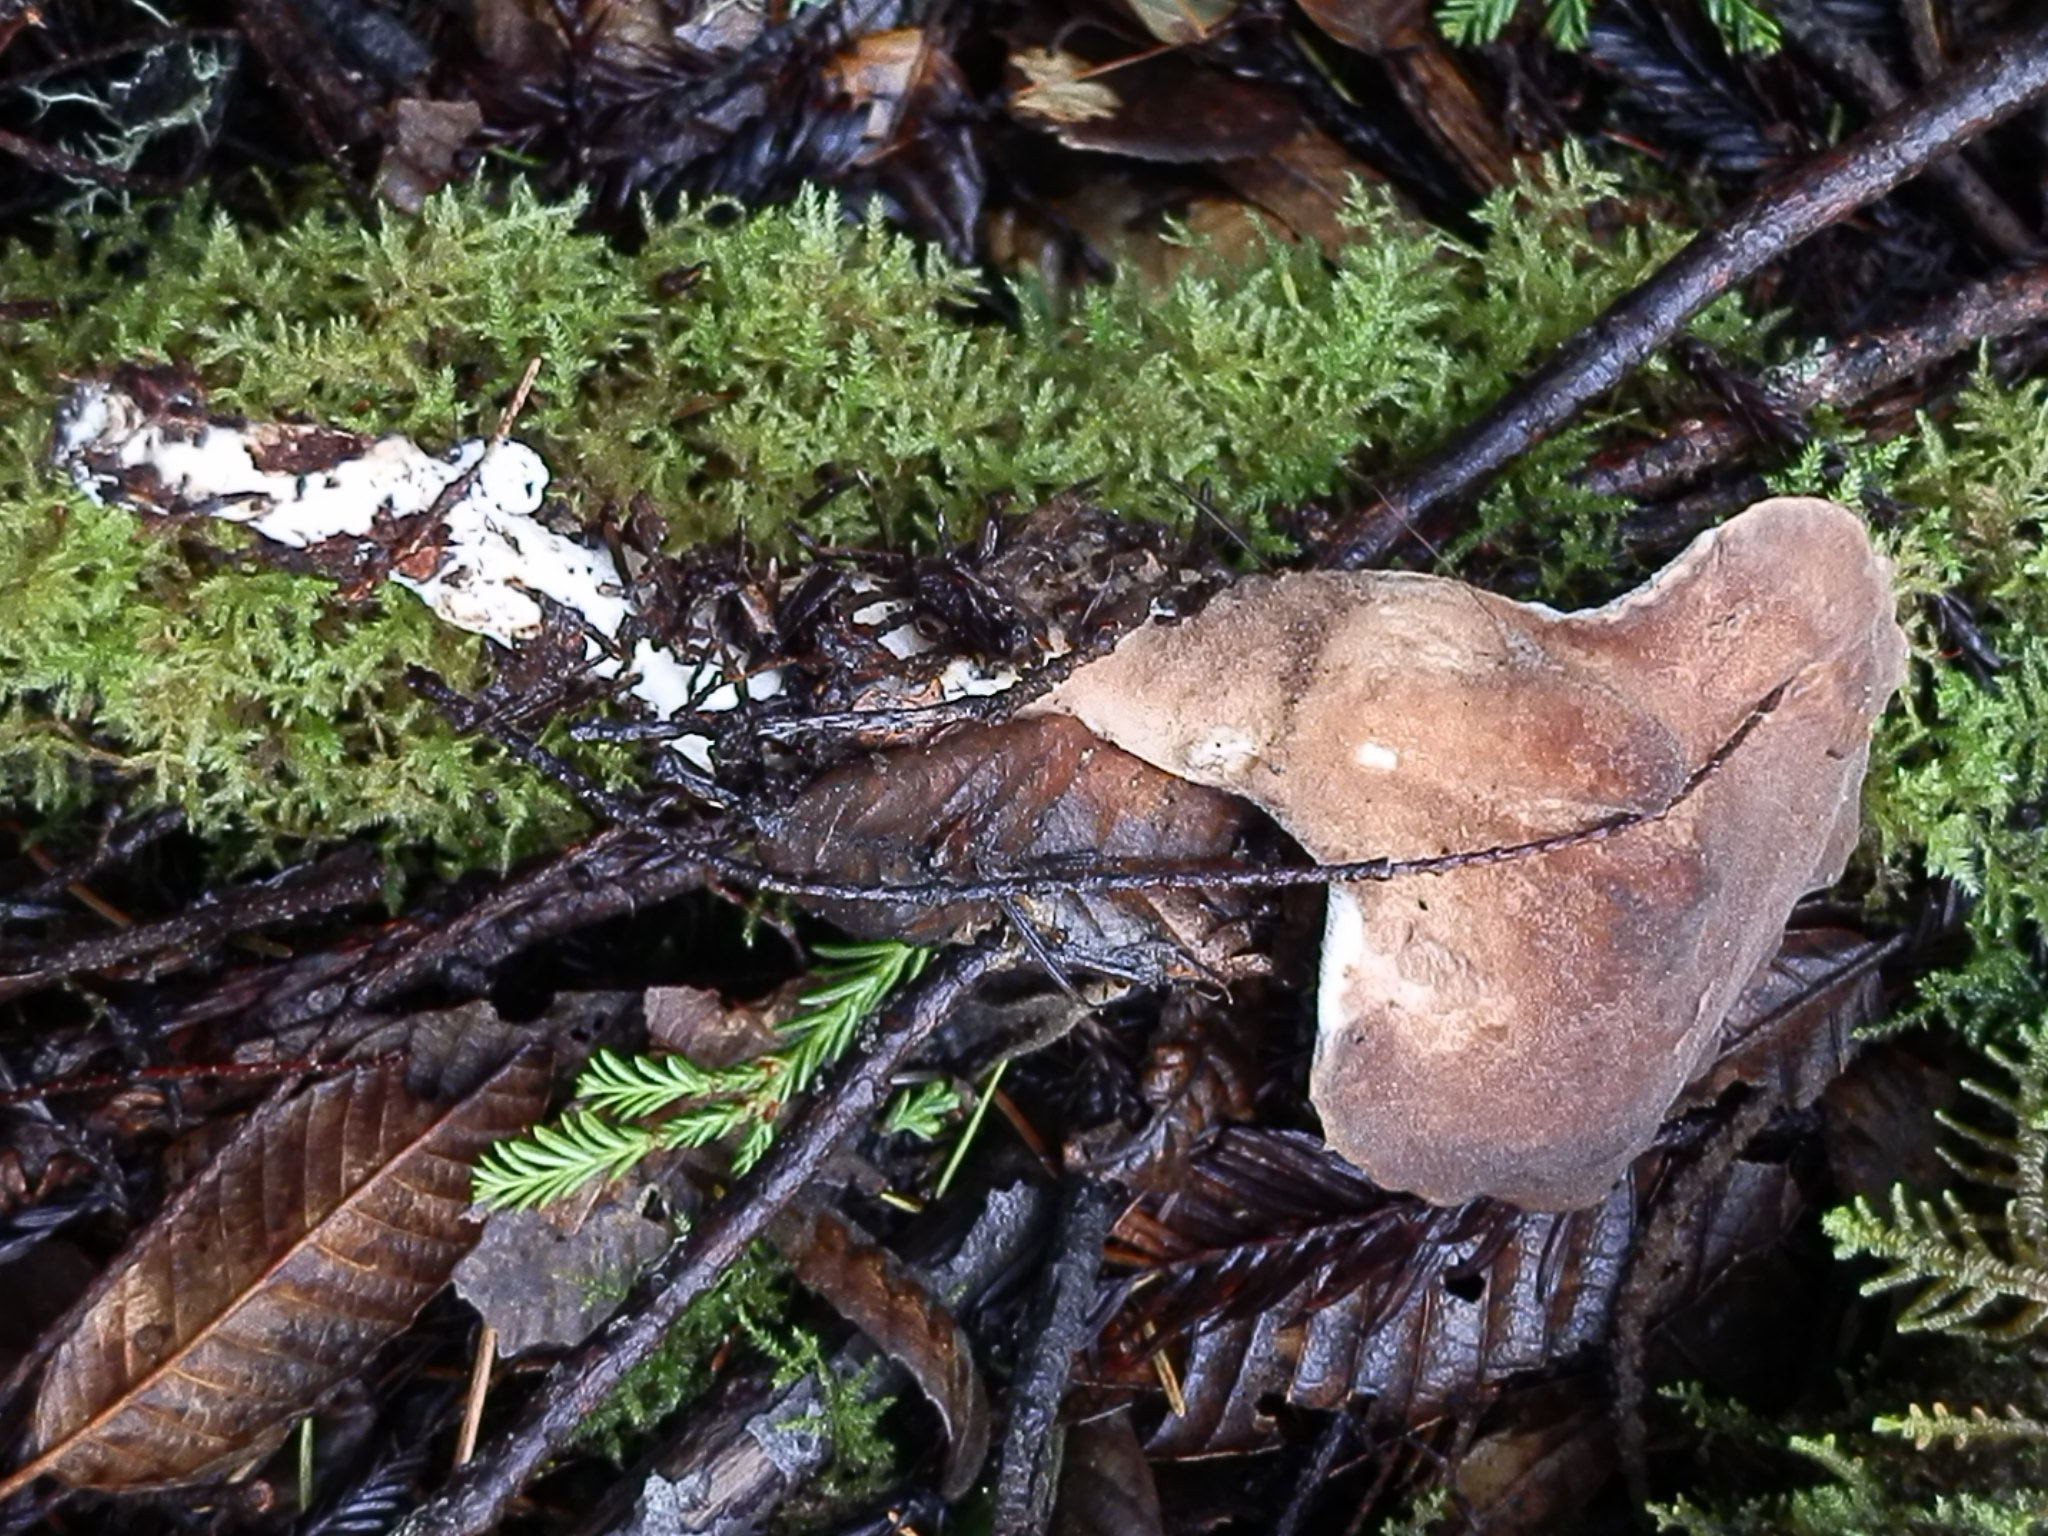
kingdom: Fungi
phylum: Basidiomycota
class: Agaricomycetes
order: Polyporales
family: Dacryobolaceae
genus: Jahnoporus
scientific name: Jahnoporus hirtus
